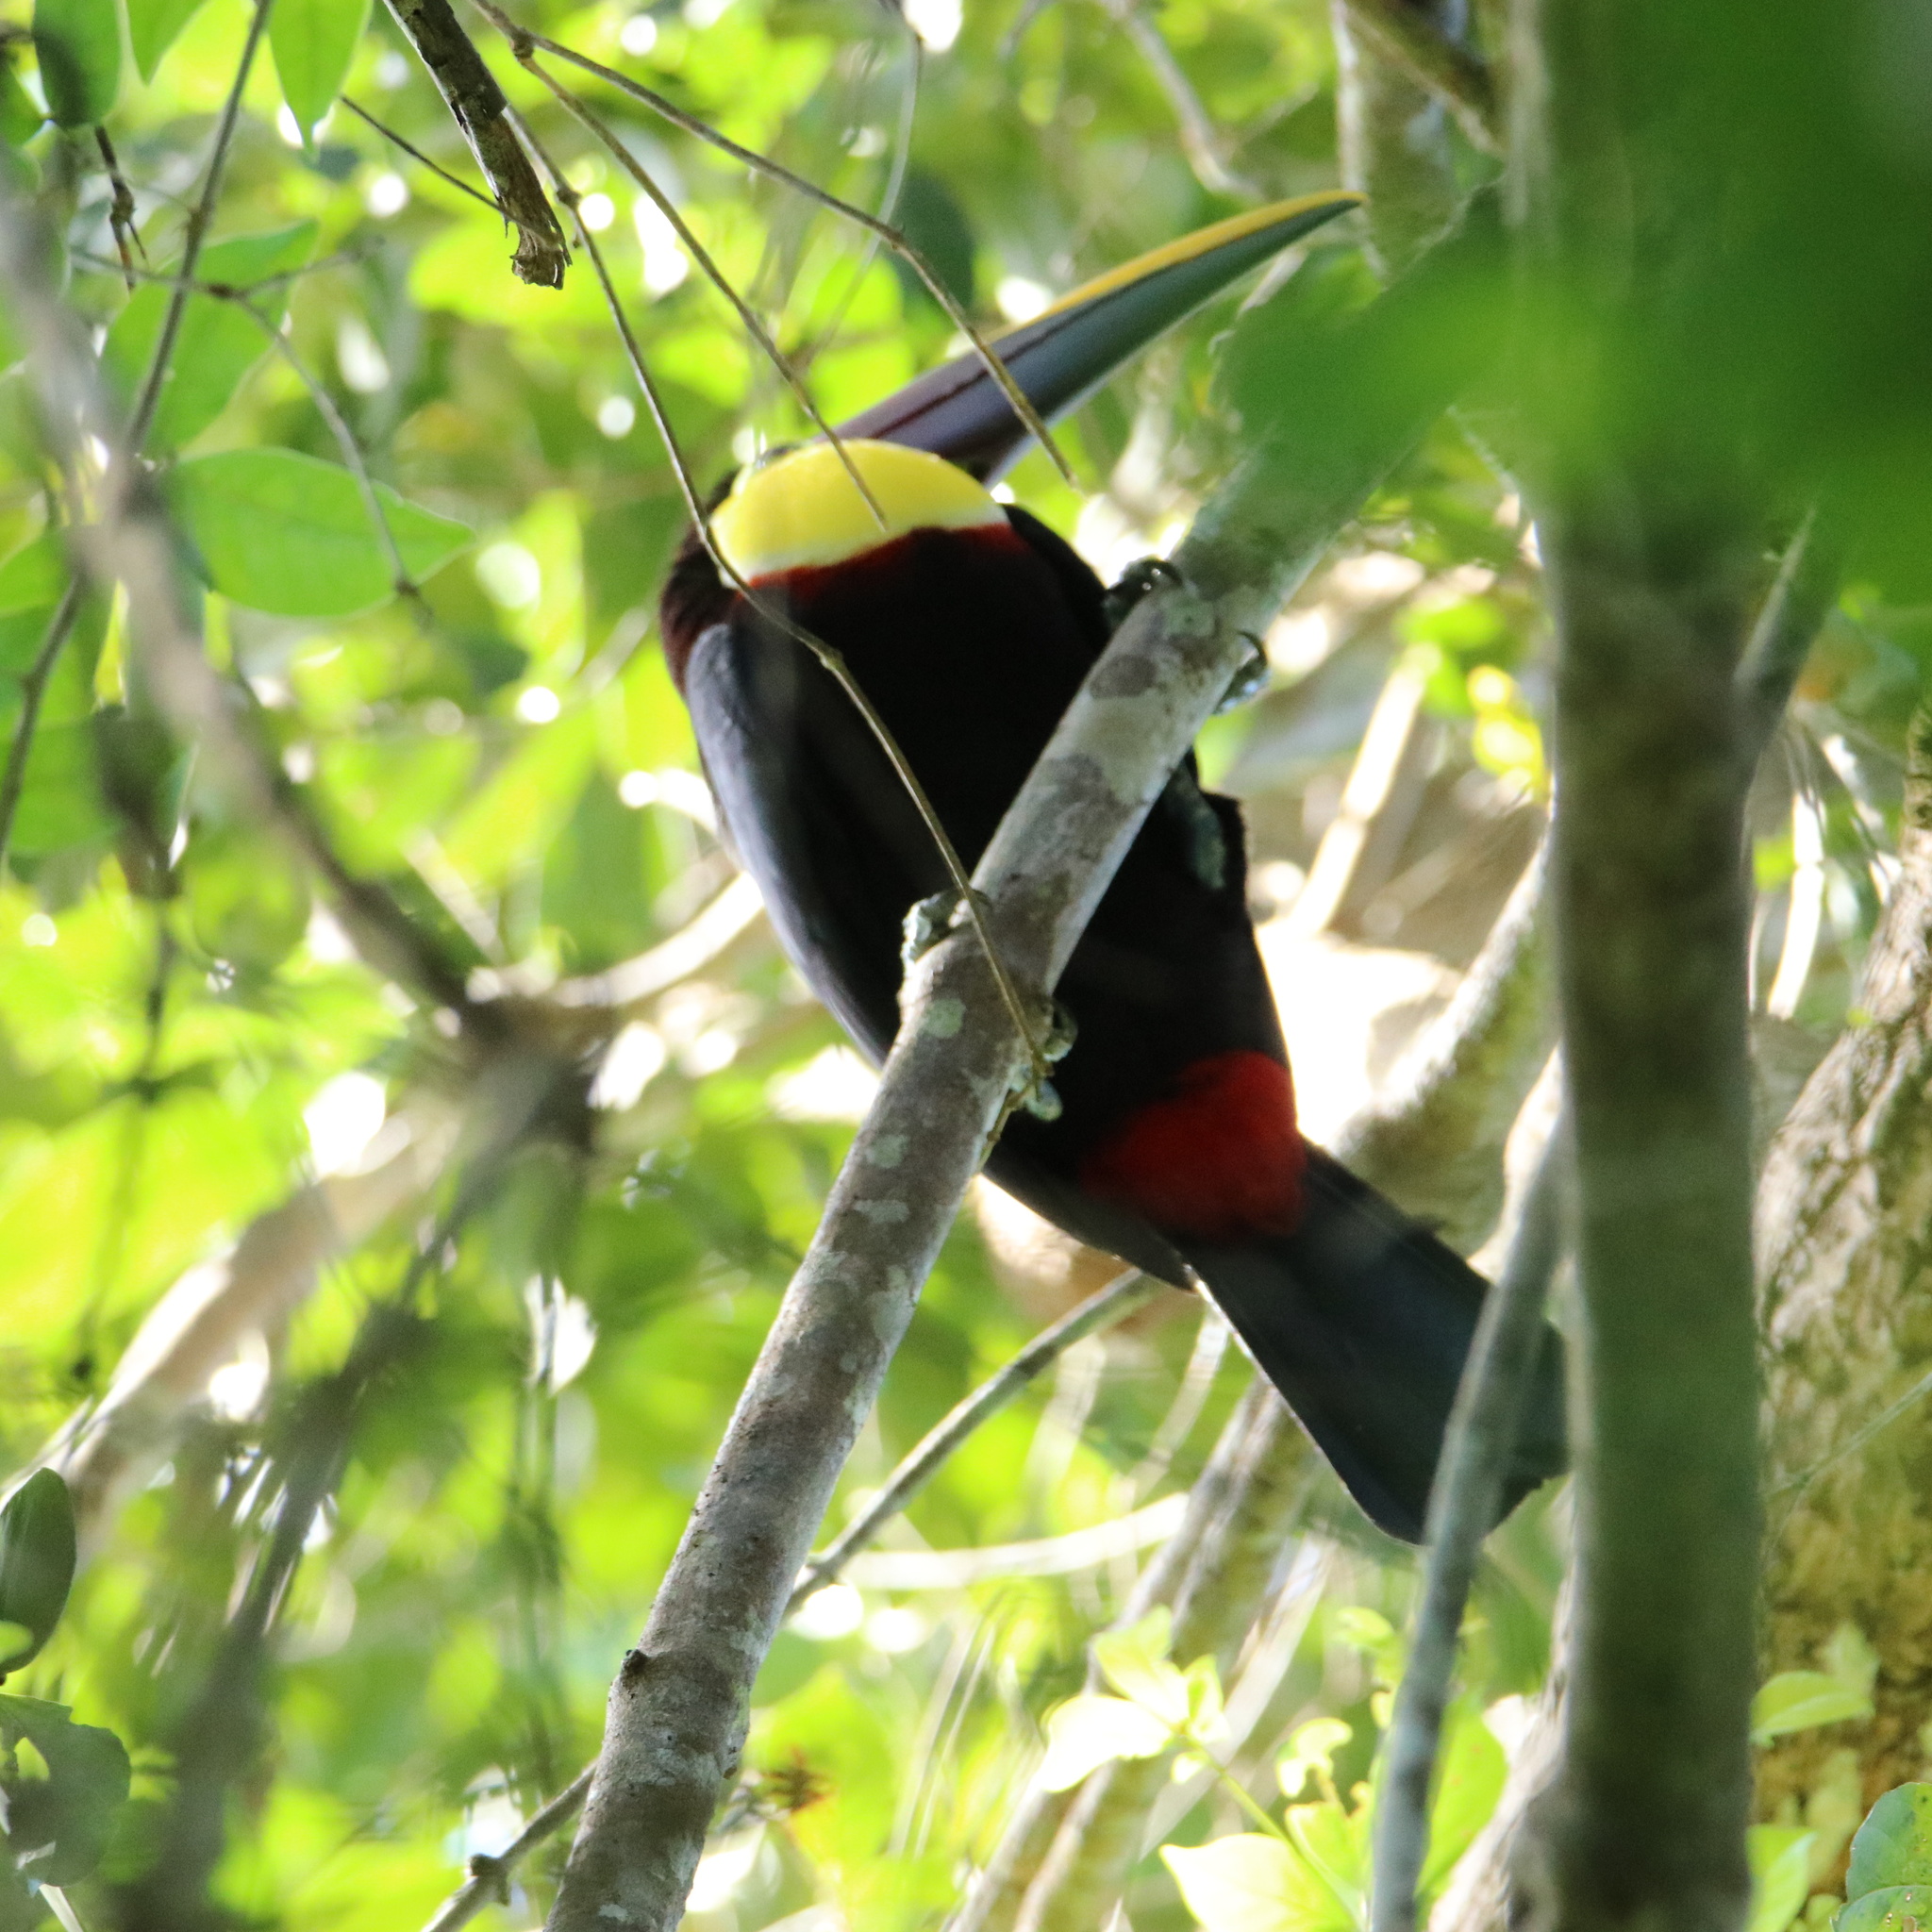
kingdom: Animalia
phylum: Chordata
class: Aves
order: Piciformes
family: Ramphastidae
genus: Ramphastos
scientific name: Ramphastos ambiguus
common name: Yellow-throated toucan
